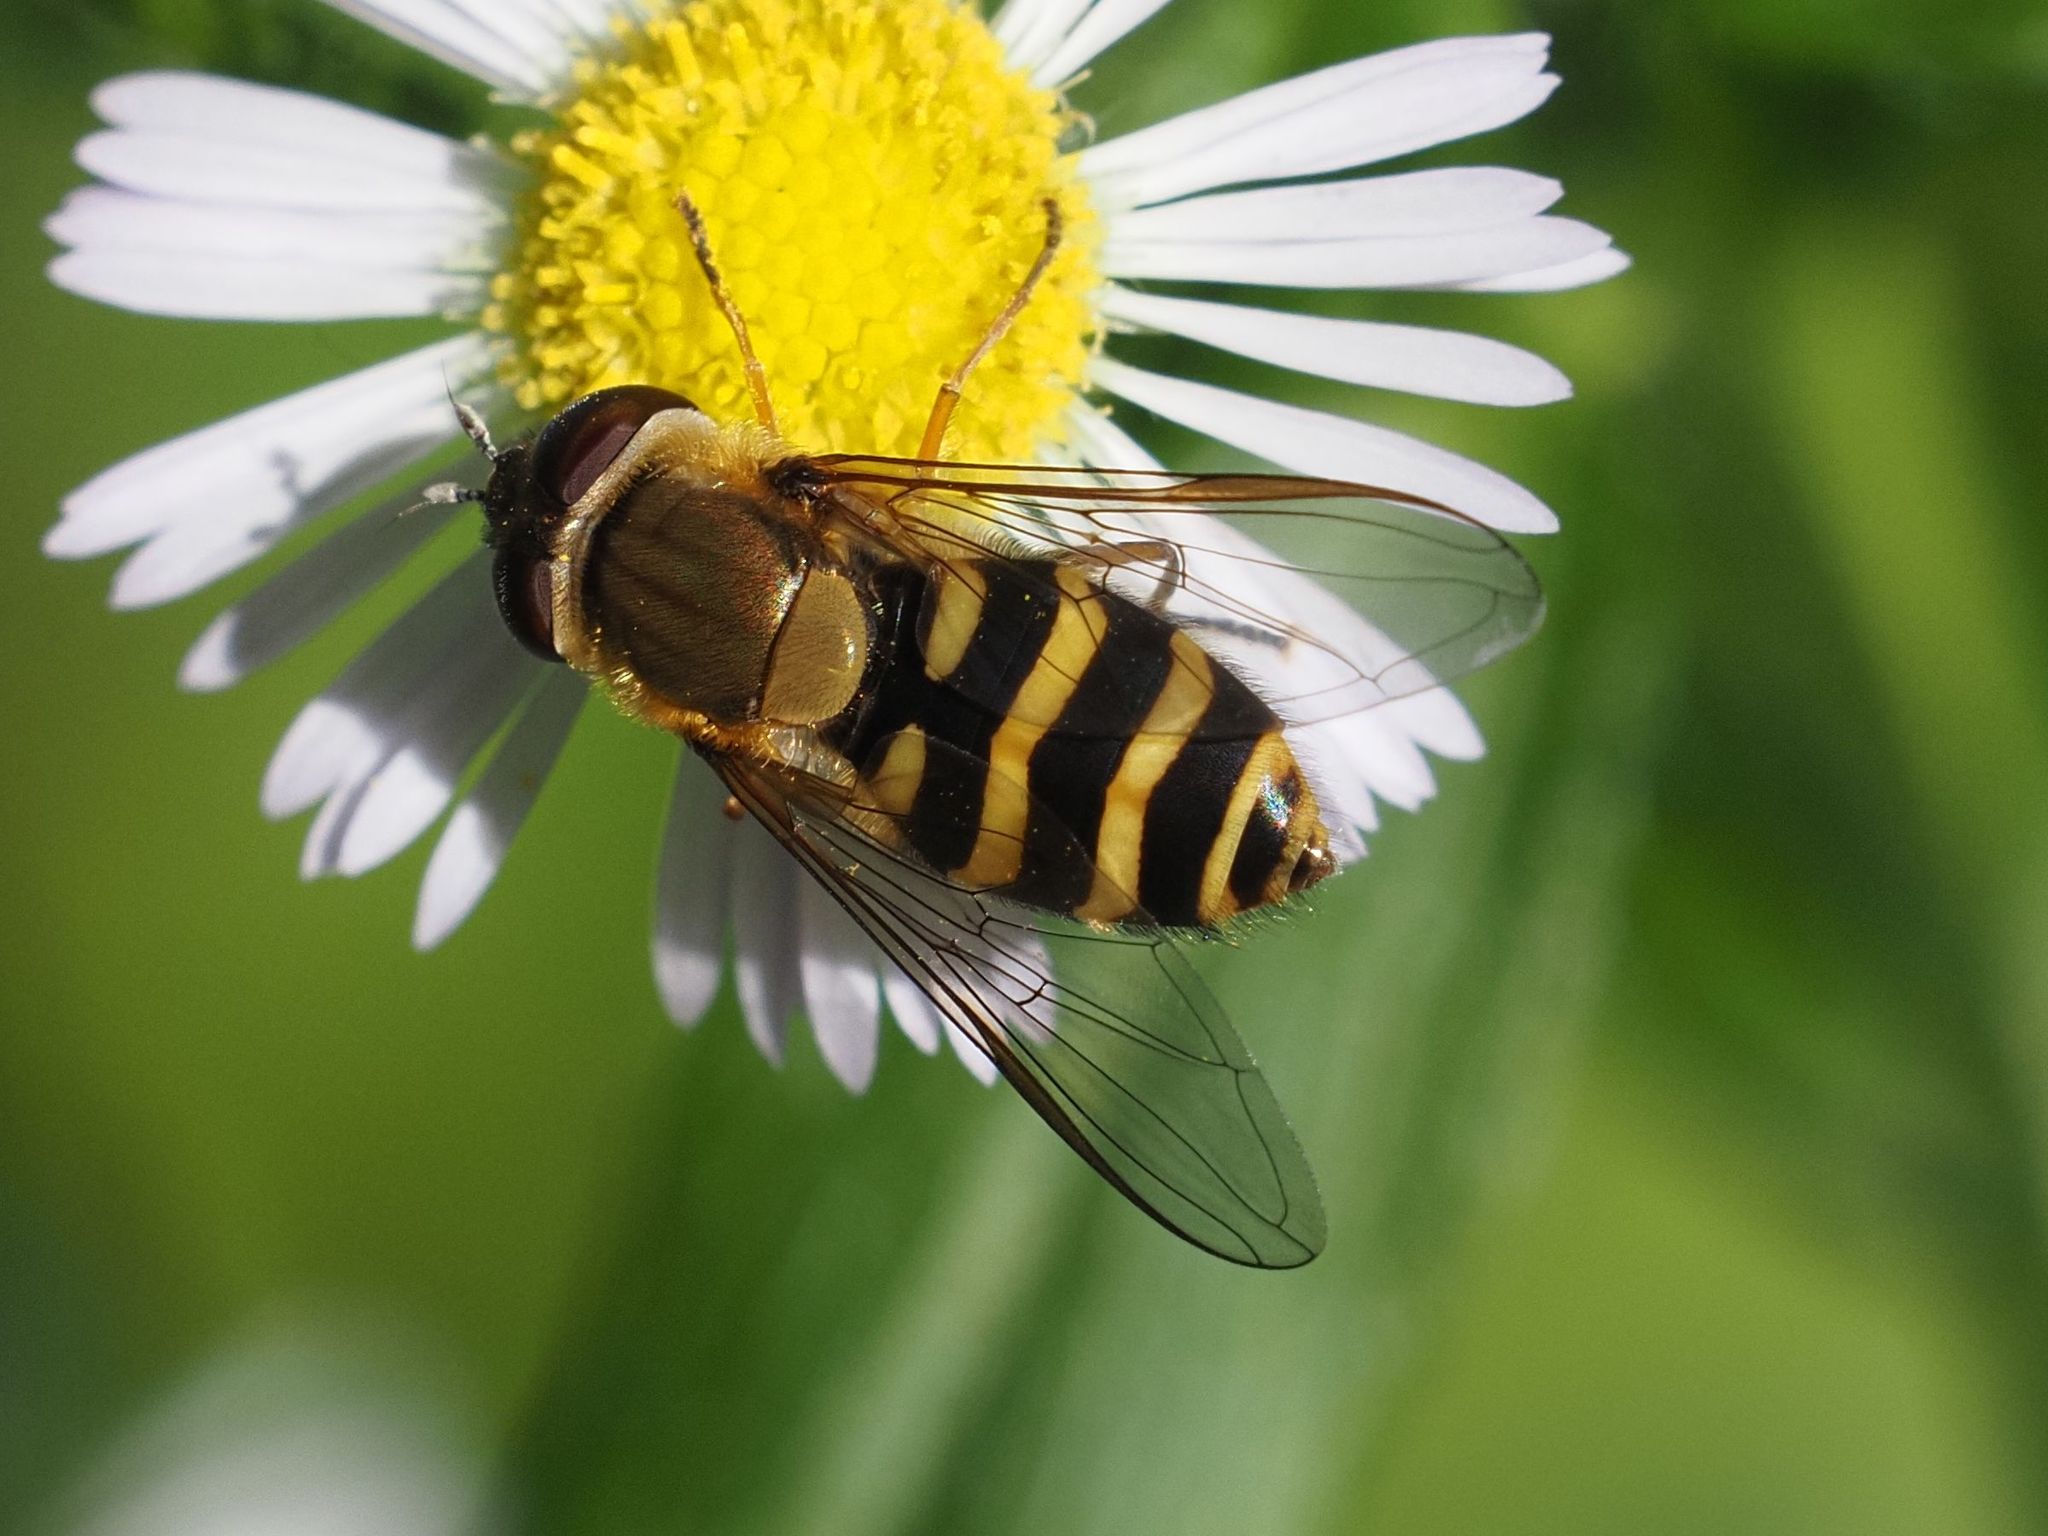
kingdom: Animalia
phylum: Arthropoda
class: Insecta
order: Diptera
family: Syrphidae
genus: Syrphus
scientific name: Syrphus torvus
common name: Hairy-eyed flower fly
